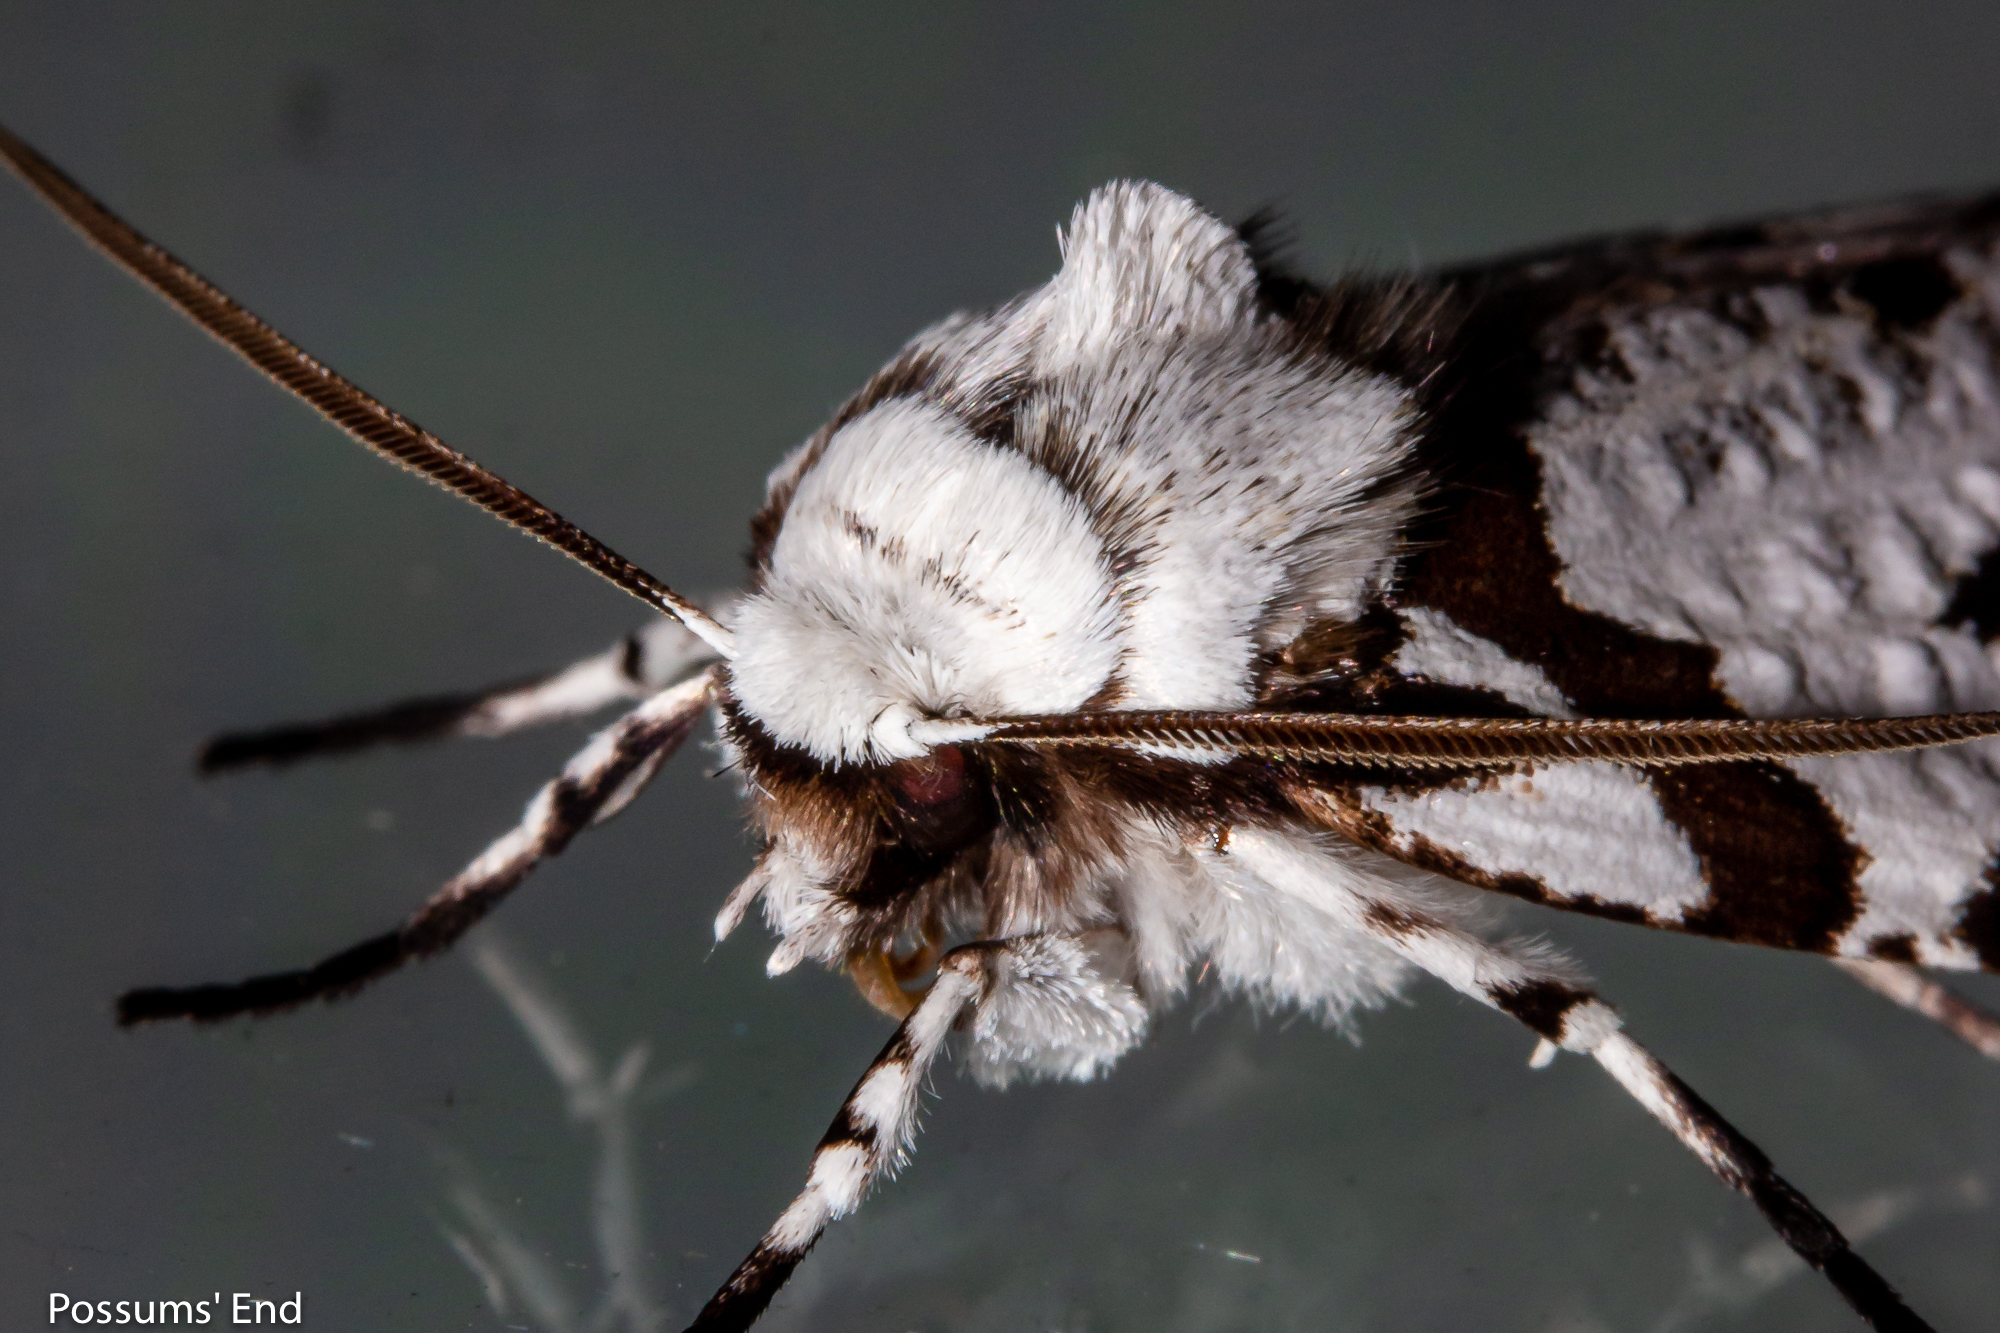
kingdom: Animalia
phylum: Arthropoda
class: Insecta
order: Lepidoptera
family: Geometridae
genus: Declana
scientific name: Declana
